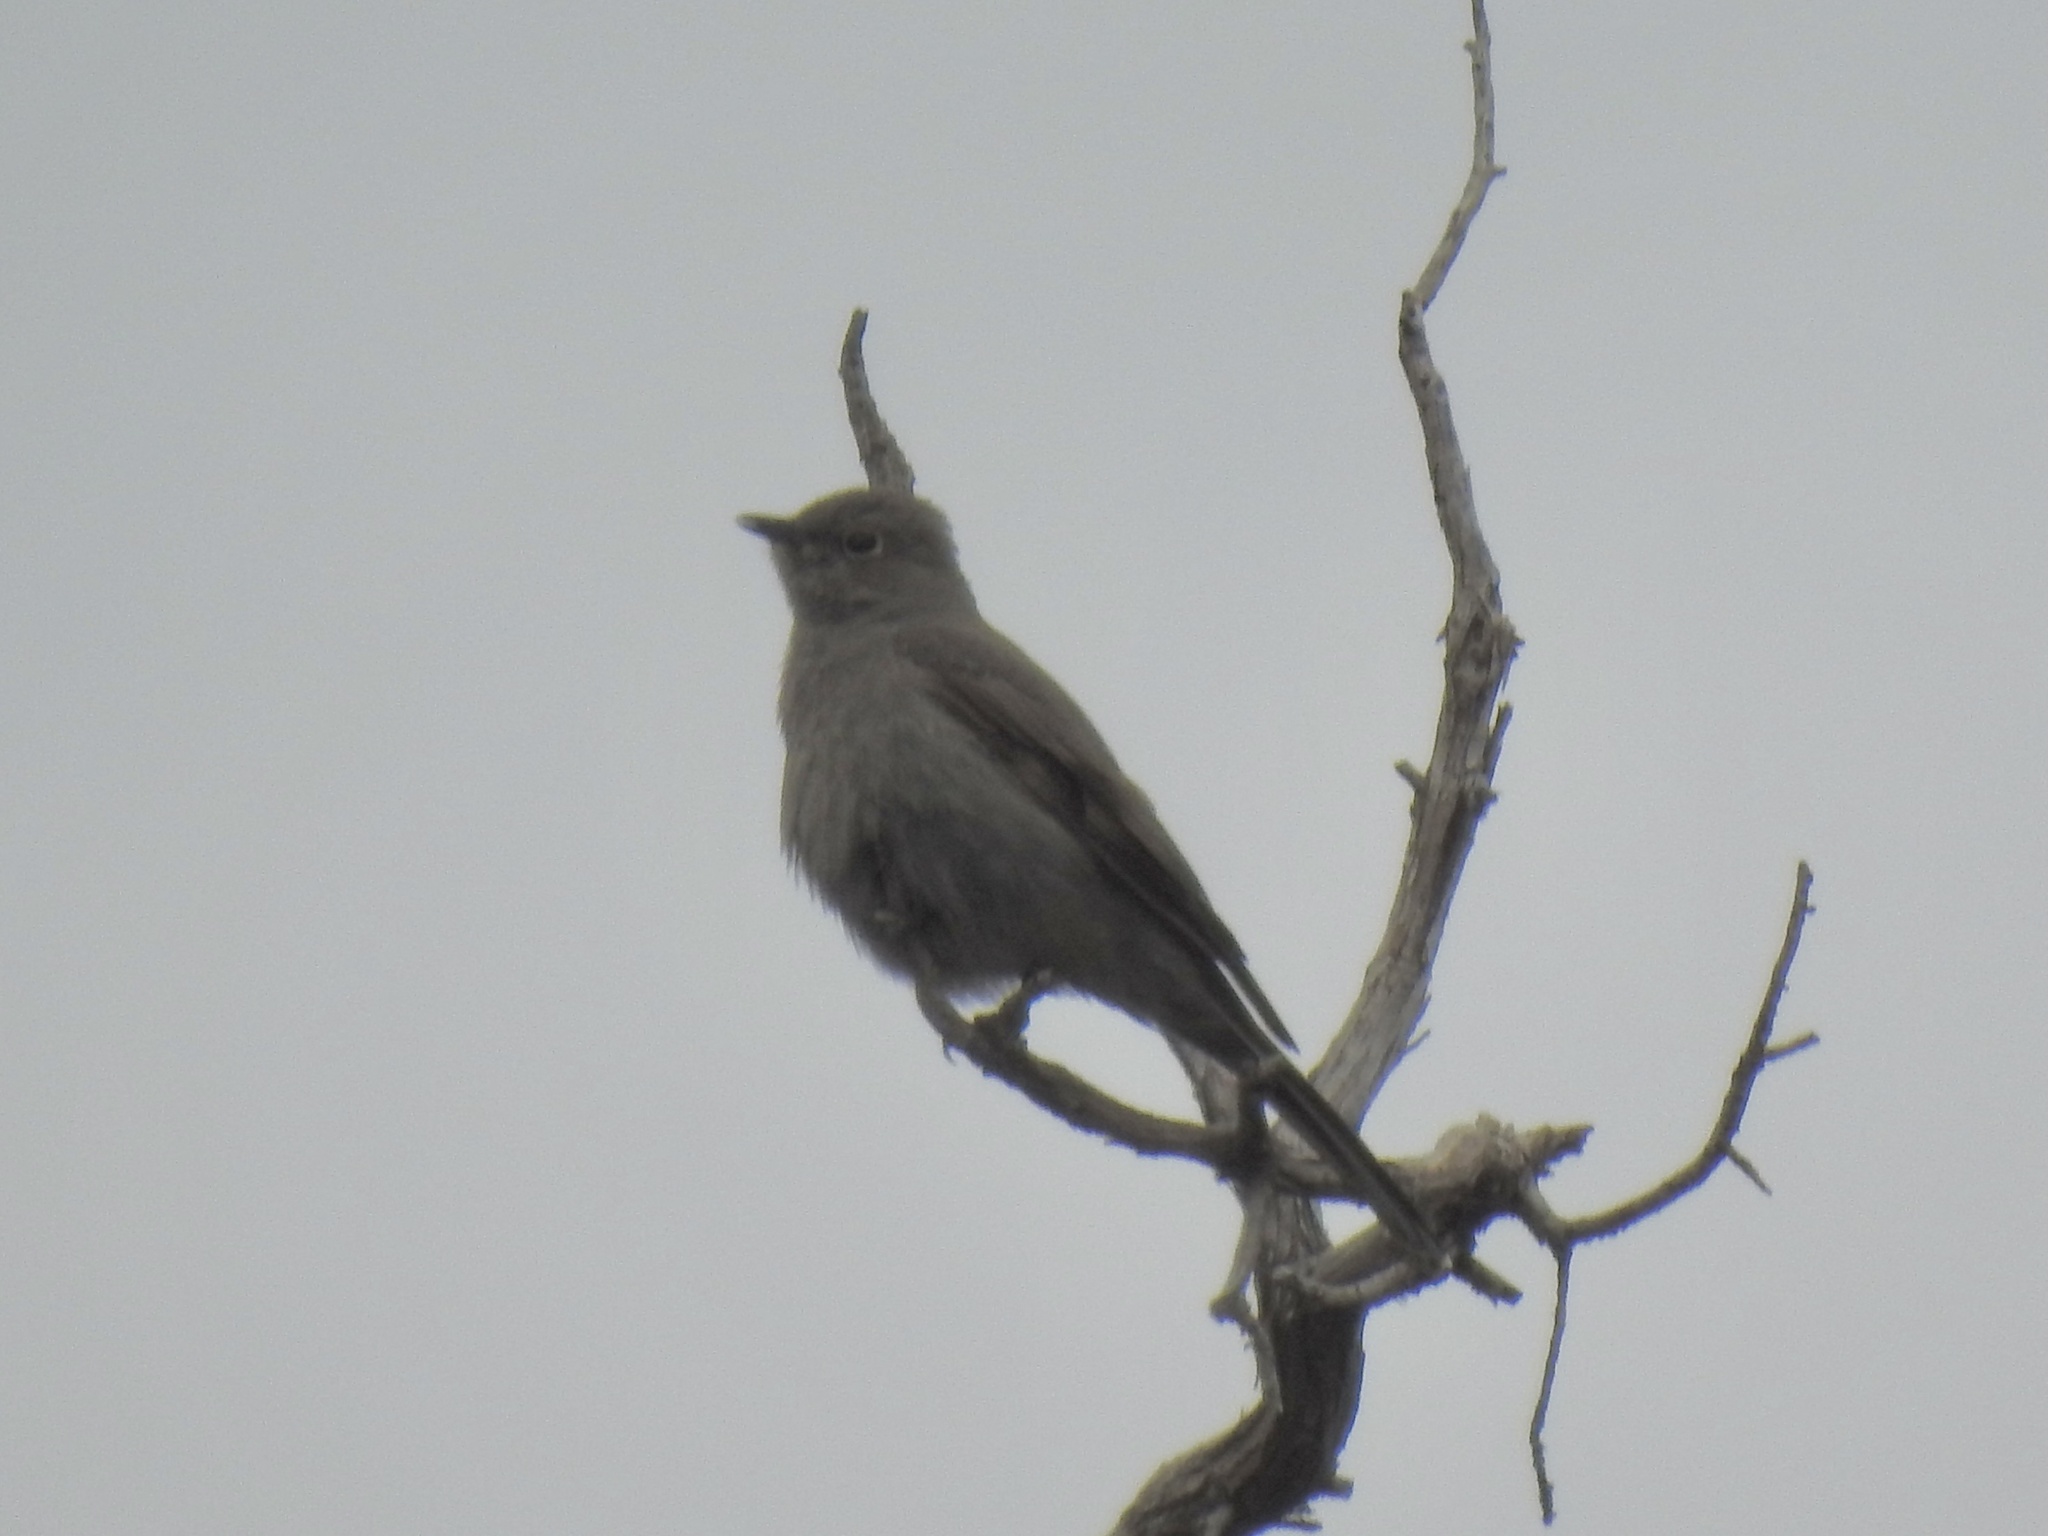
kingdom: Animalia
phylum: Chordata
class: Aves
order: Passeriformes
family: Turdidae
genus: Myadestes
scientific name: Myadestes townsendi
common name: Townsend's solitaire
